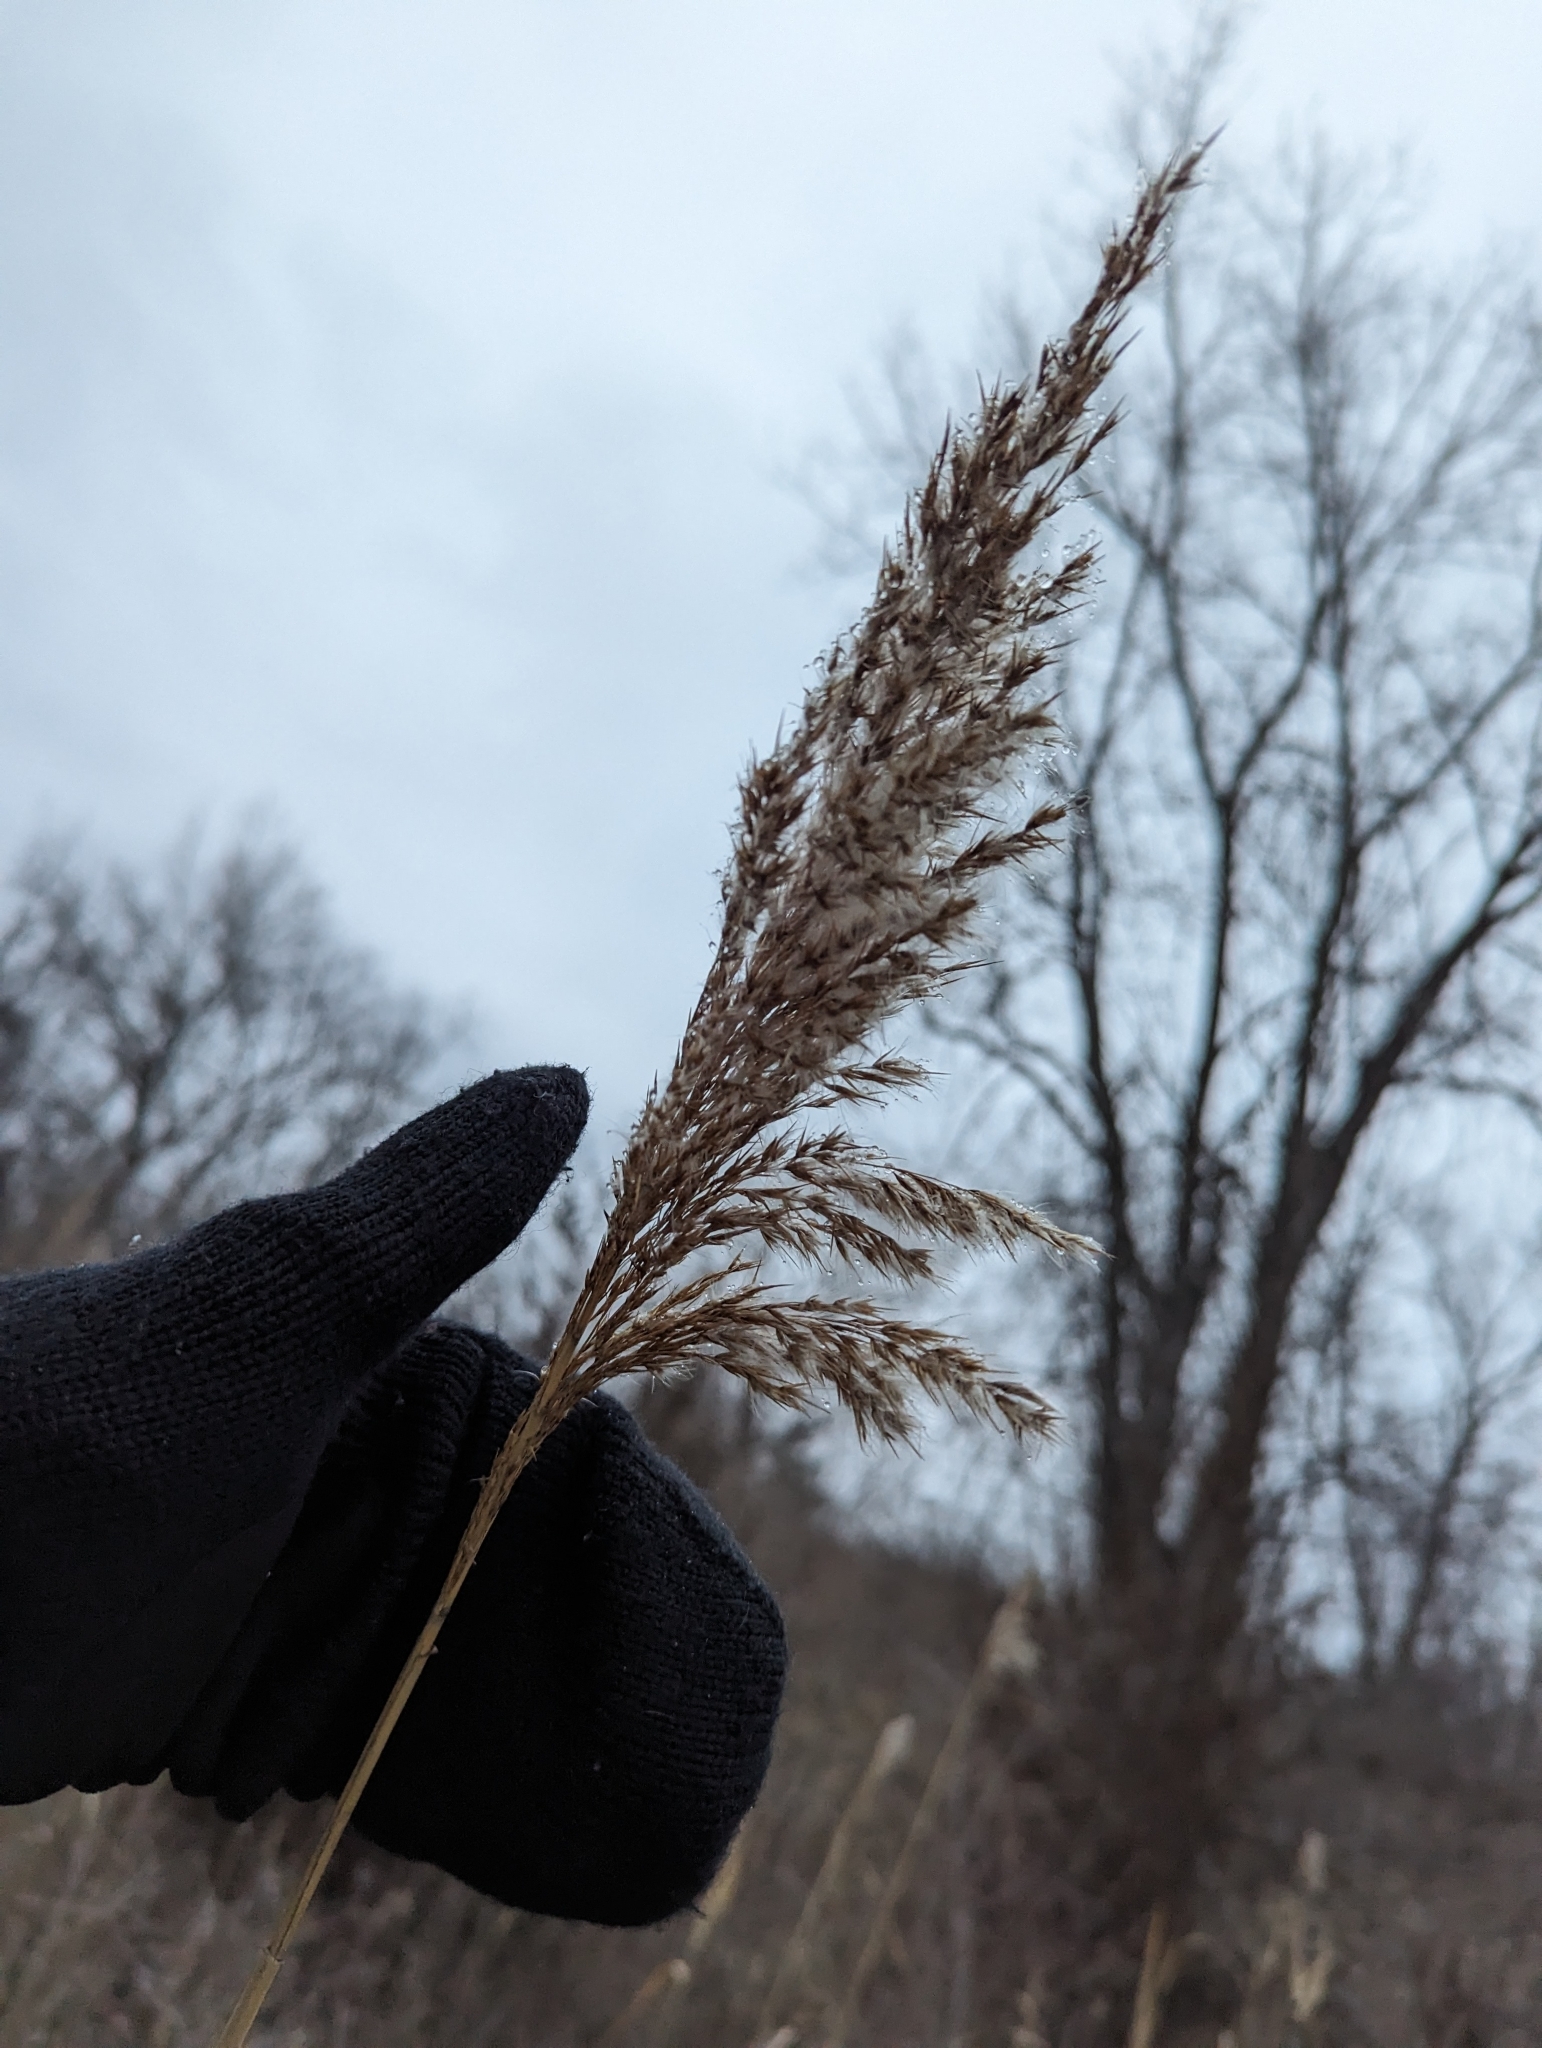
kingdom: Plantae
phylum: Tracheophyta
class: Liliopsida
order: Poales
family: Poaceae
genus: Phragmites
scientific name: Phragmites australis
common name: Common reed
